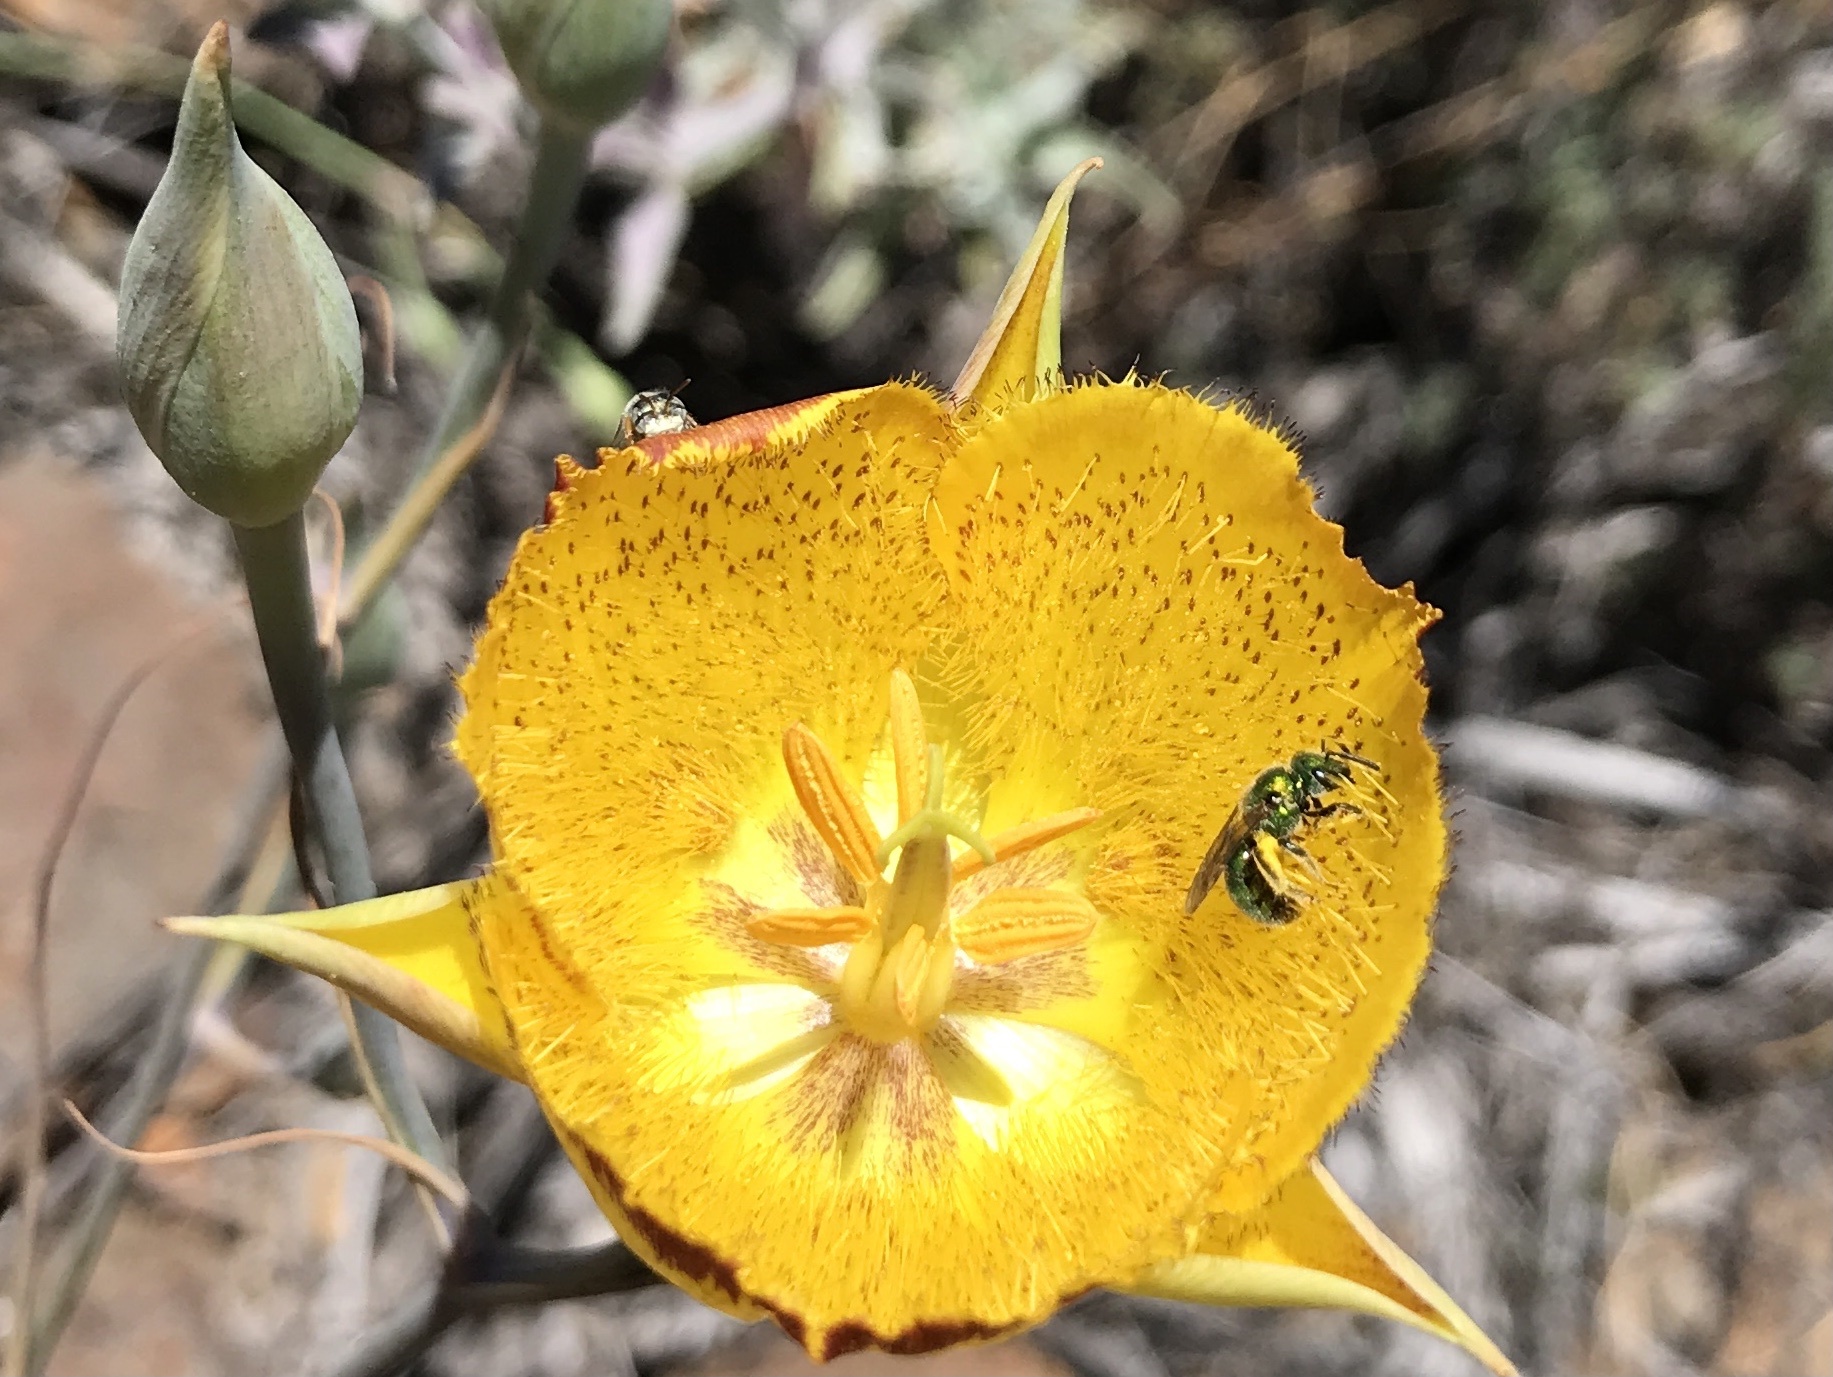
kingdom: Animalia
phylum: Arthropoda
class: Insecta
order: Hymenoptera
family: Halictidae
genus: Augochlorella
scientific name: Augochlorella pomoniella
